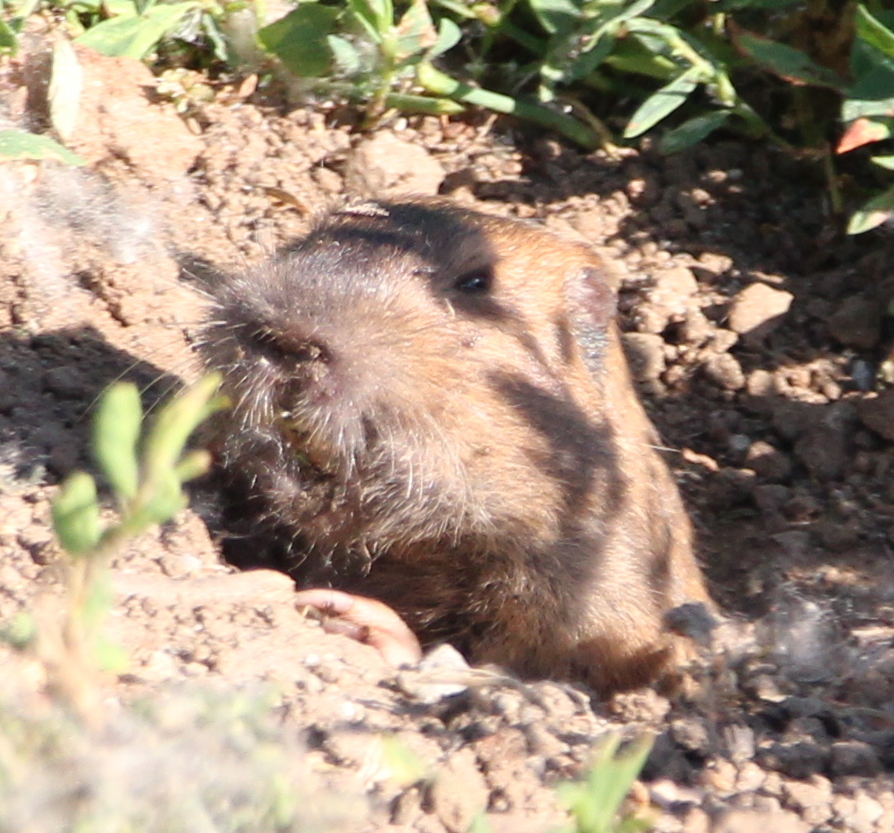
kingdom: Animalia
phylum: Chordata
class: Mammalia
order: Rodentia
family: Geomyidae
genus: Thomomys
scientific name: Thomomys bottae
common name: Botta's pocket gopher
